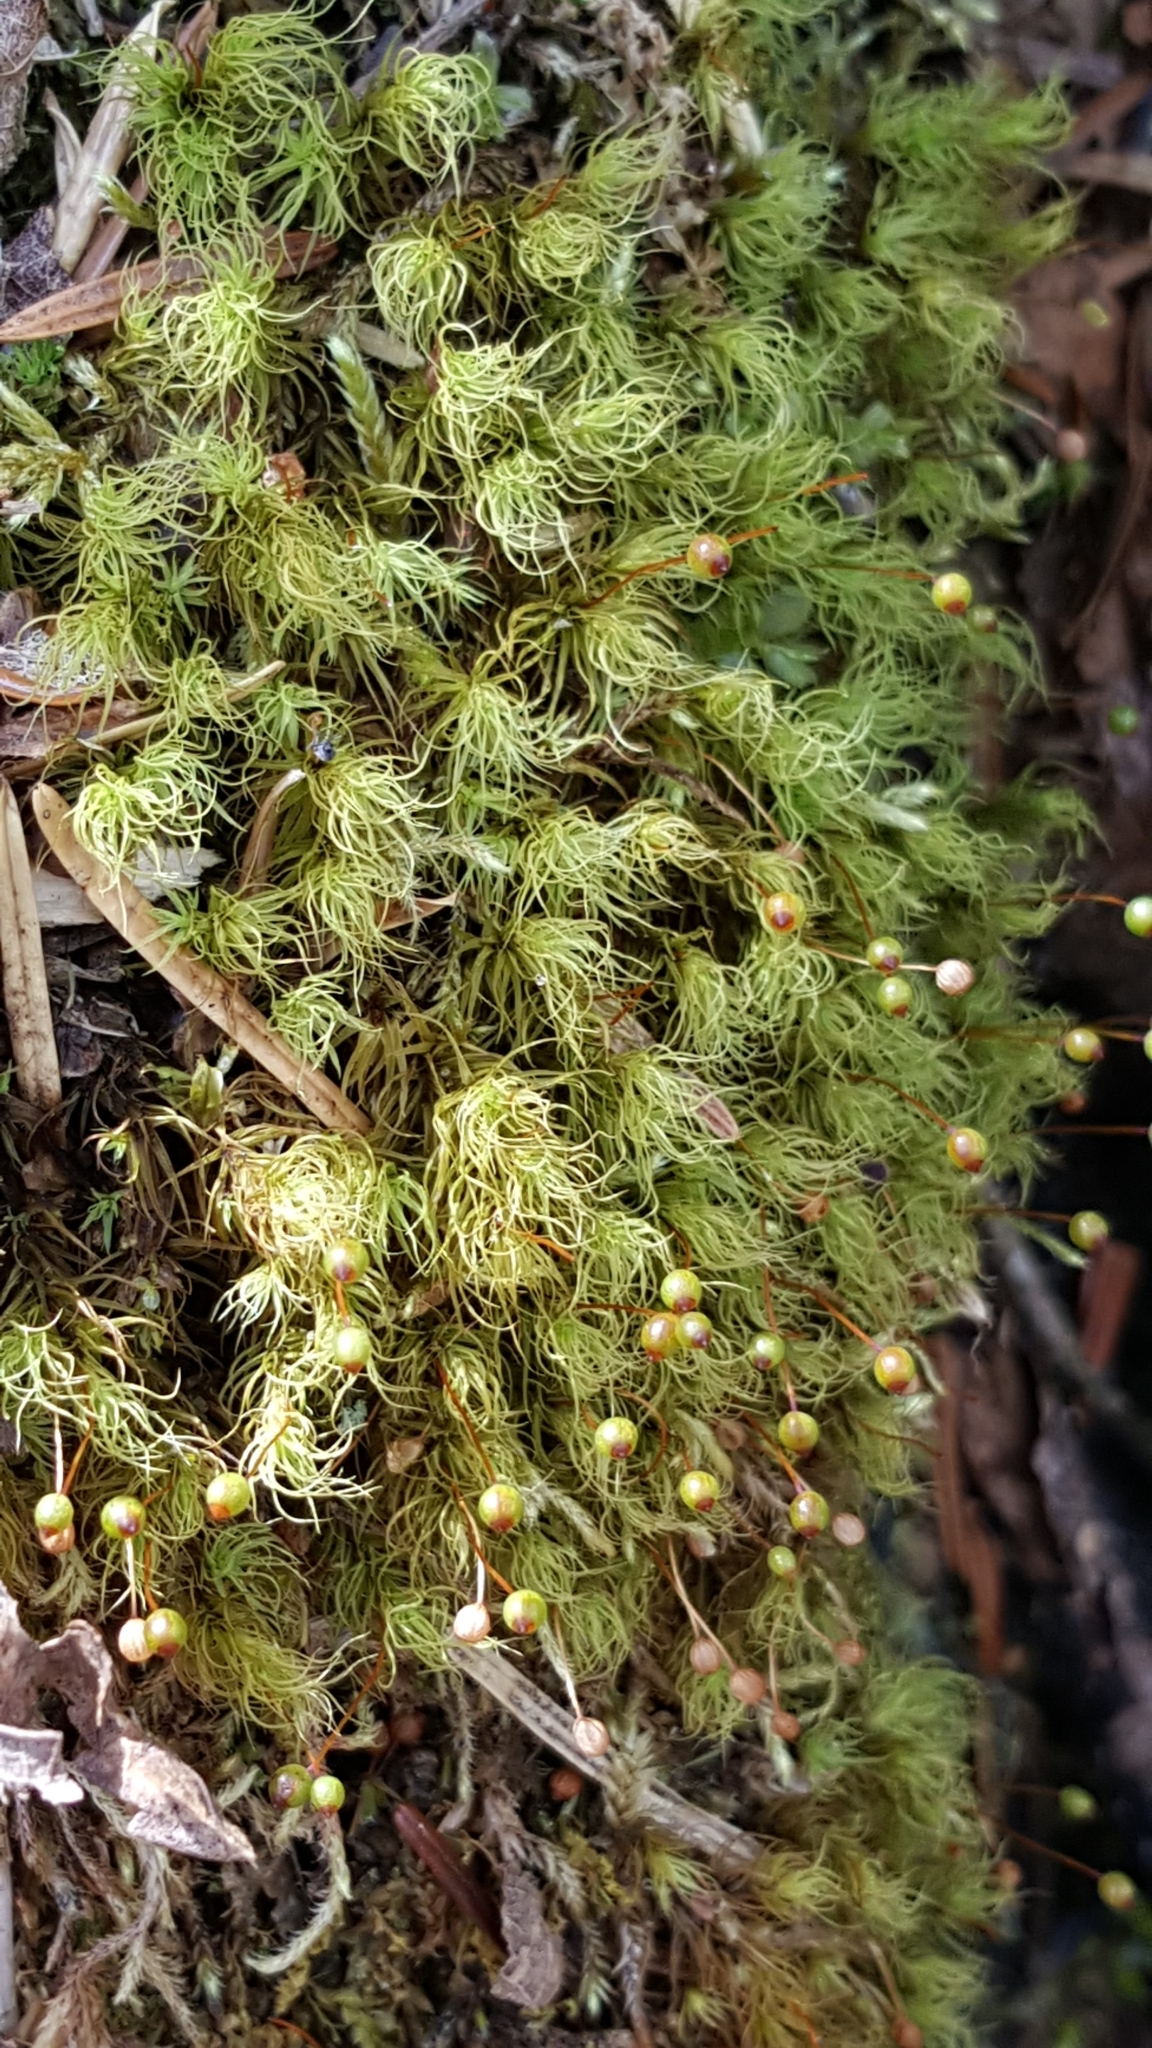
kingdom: Plantae
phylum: Bryophyta
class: Bryopsida
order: Bartramiales
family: Bartramiaceae
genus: Bartramia
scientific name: Bartramia ithyphylla
